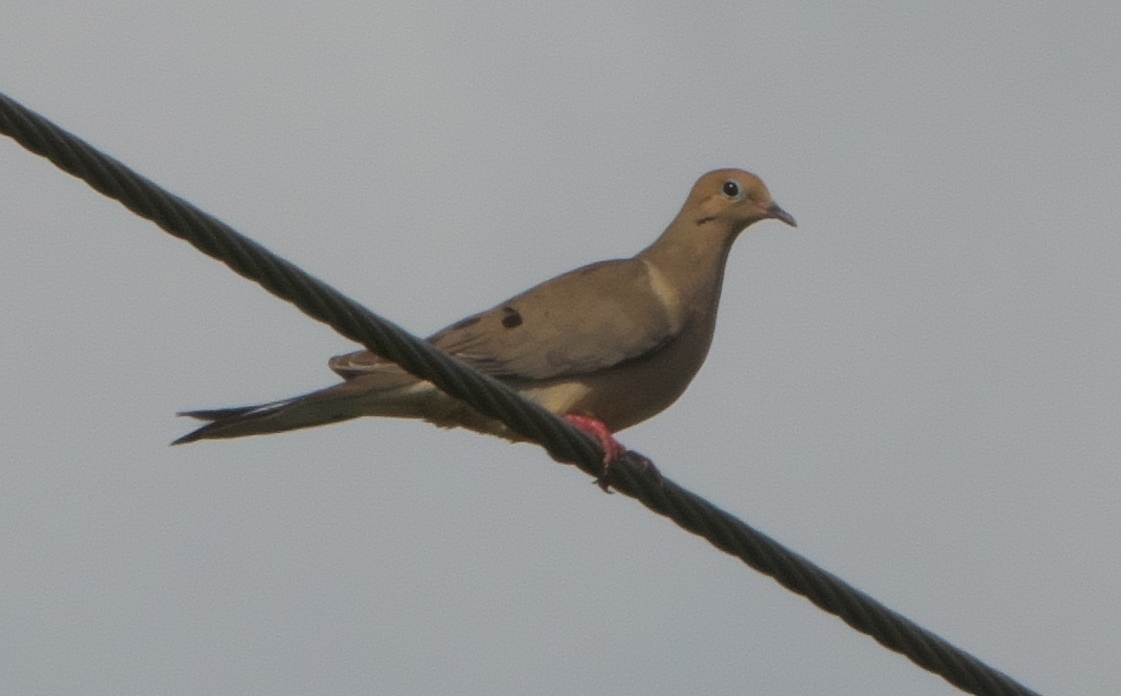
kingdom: Animalia
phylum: Chordata
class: Aves
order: Columbiformes
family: Columbidae
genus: Zenaida
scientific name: Zenaida macroura
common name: Mourning dove
